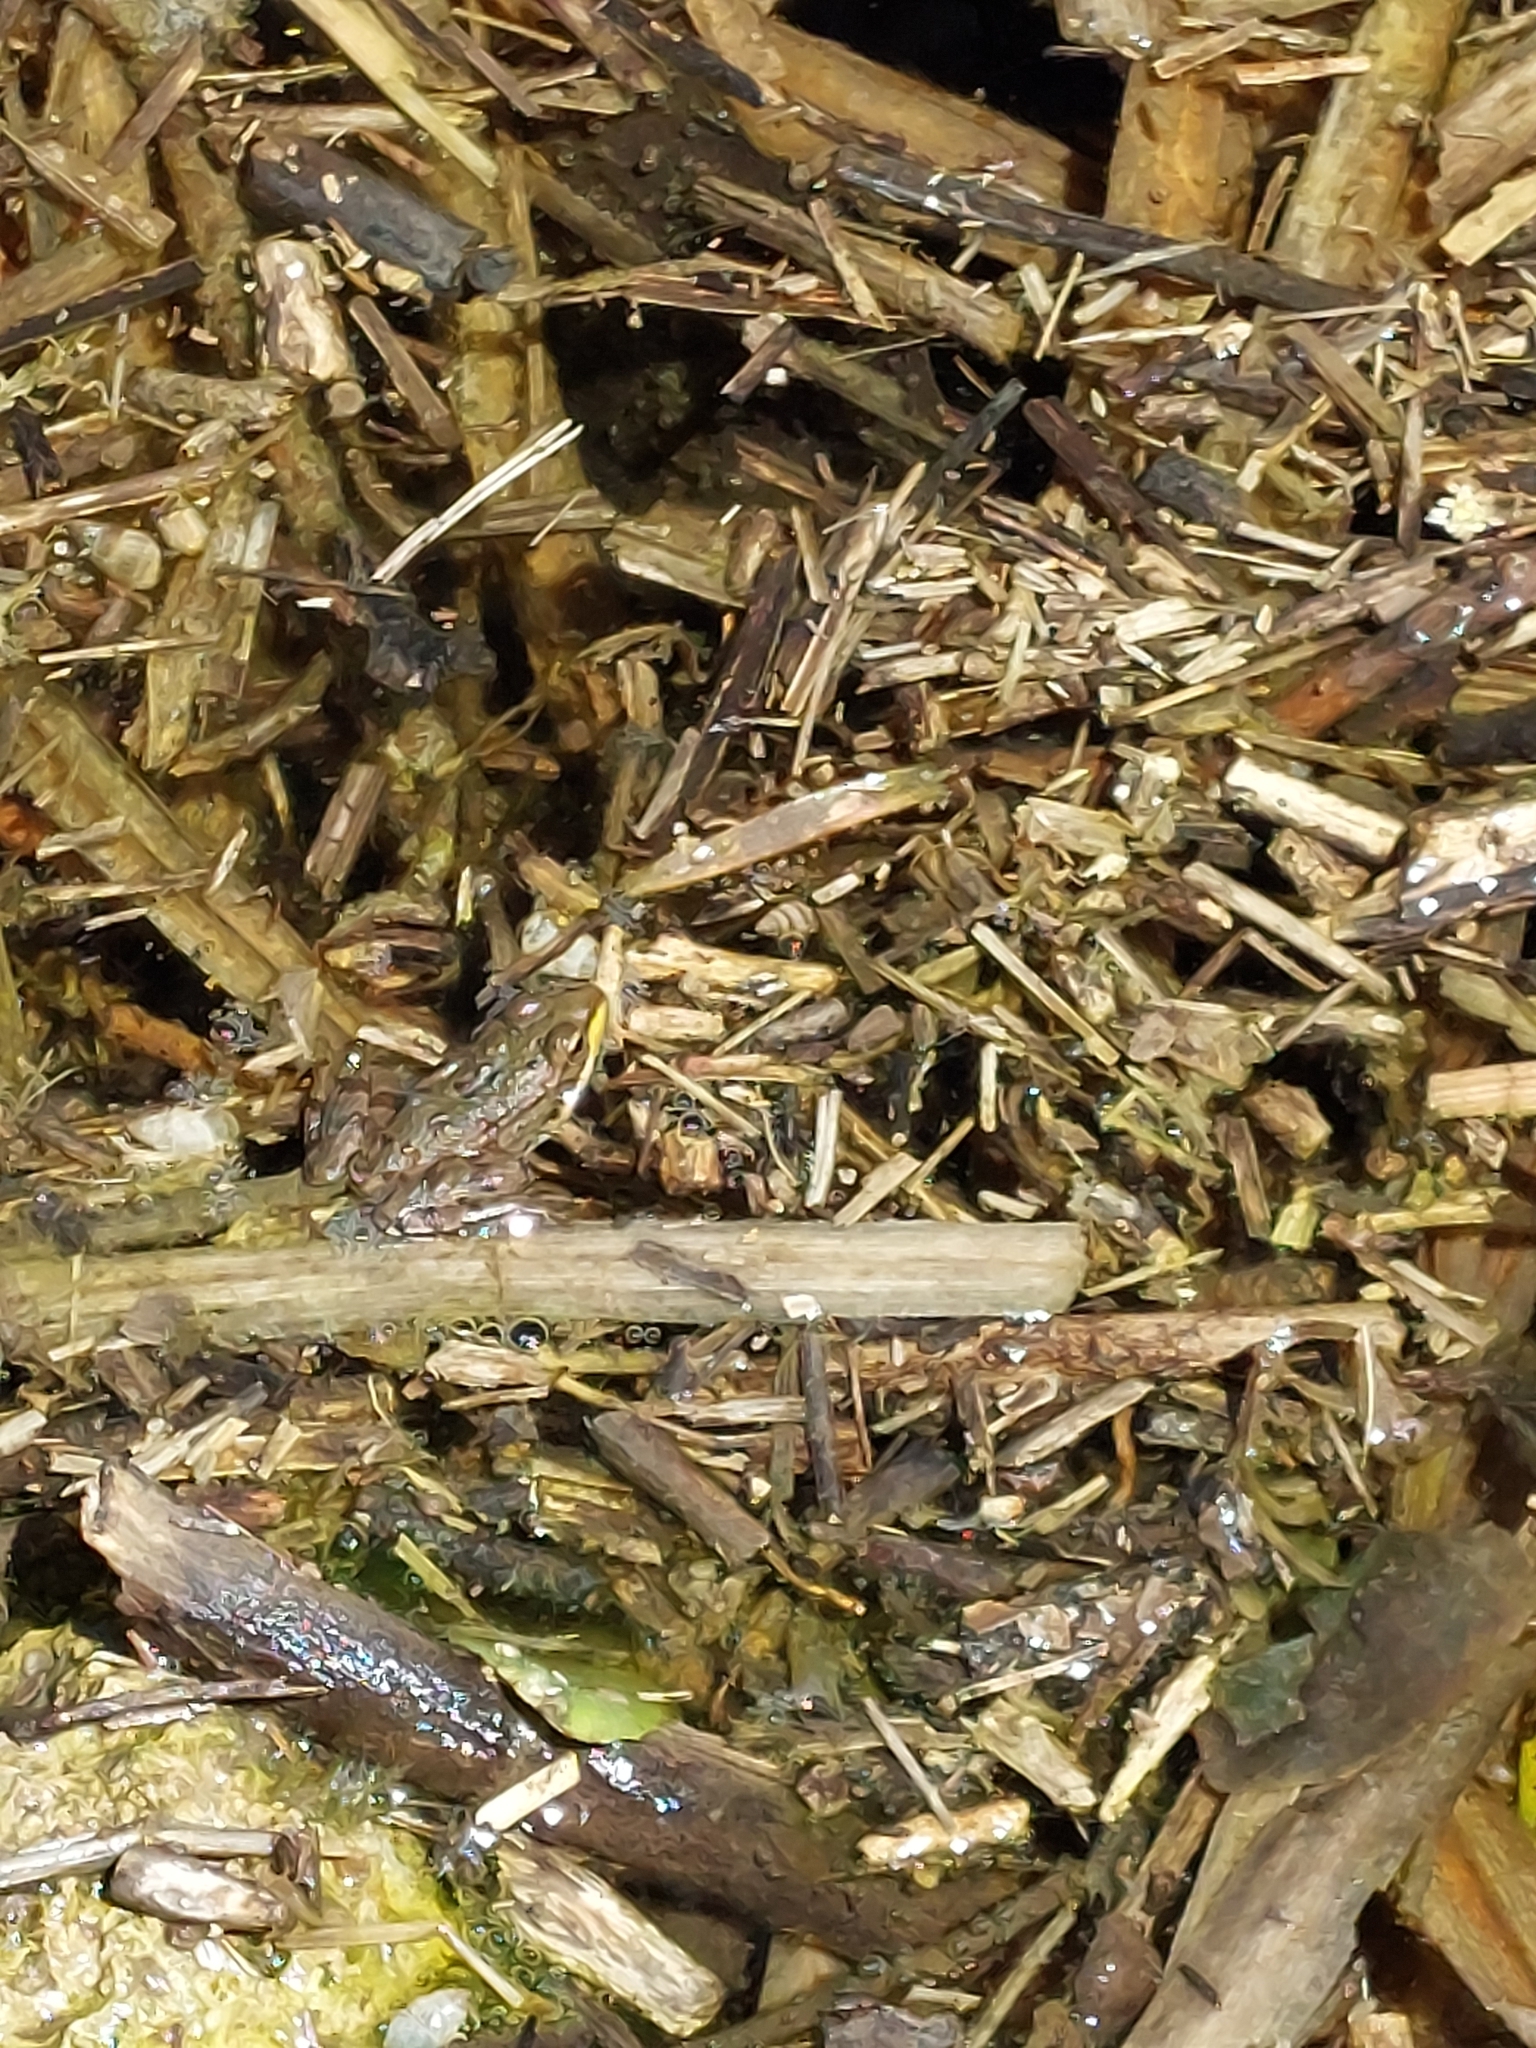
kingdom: Animalia
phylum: Chordata
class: Amphibia
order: Anura
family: Ranidae
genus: Pelophylax
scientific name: Pelophylax saharicus
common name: Sahara frog
